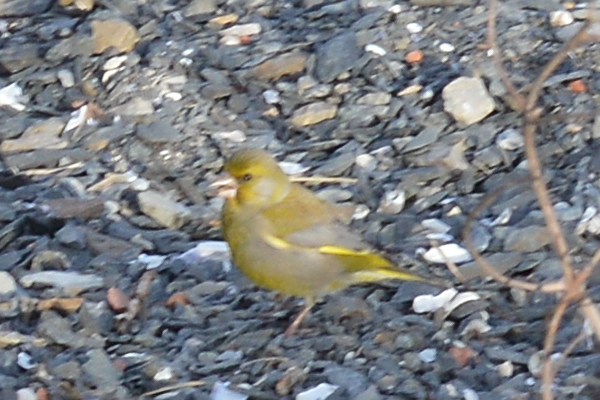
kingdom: Plantae
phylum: Tracheophyta
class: Liliopsida
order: Poales
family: Poaceae
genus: Chloris
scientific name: Chloris chloris
